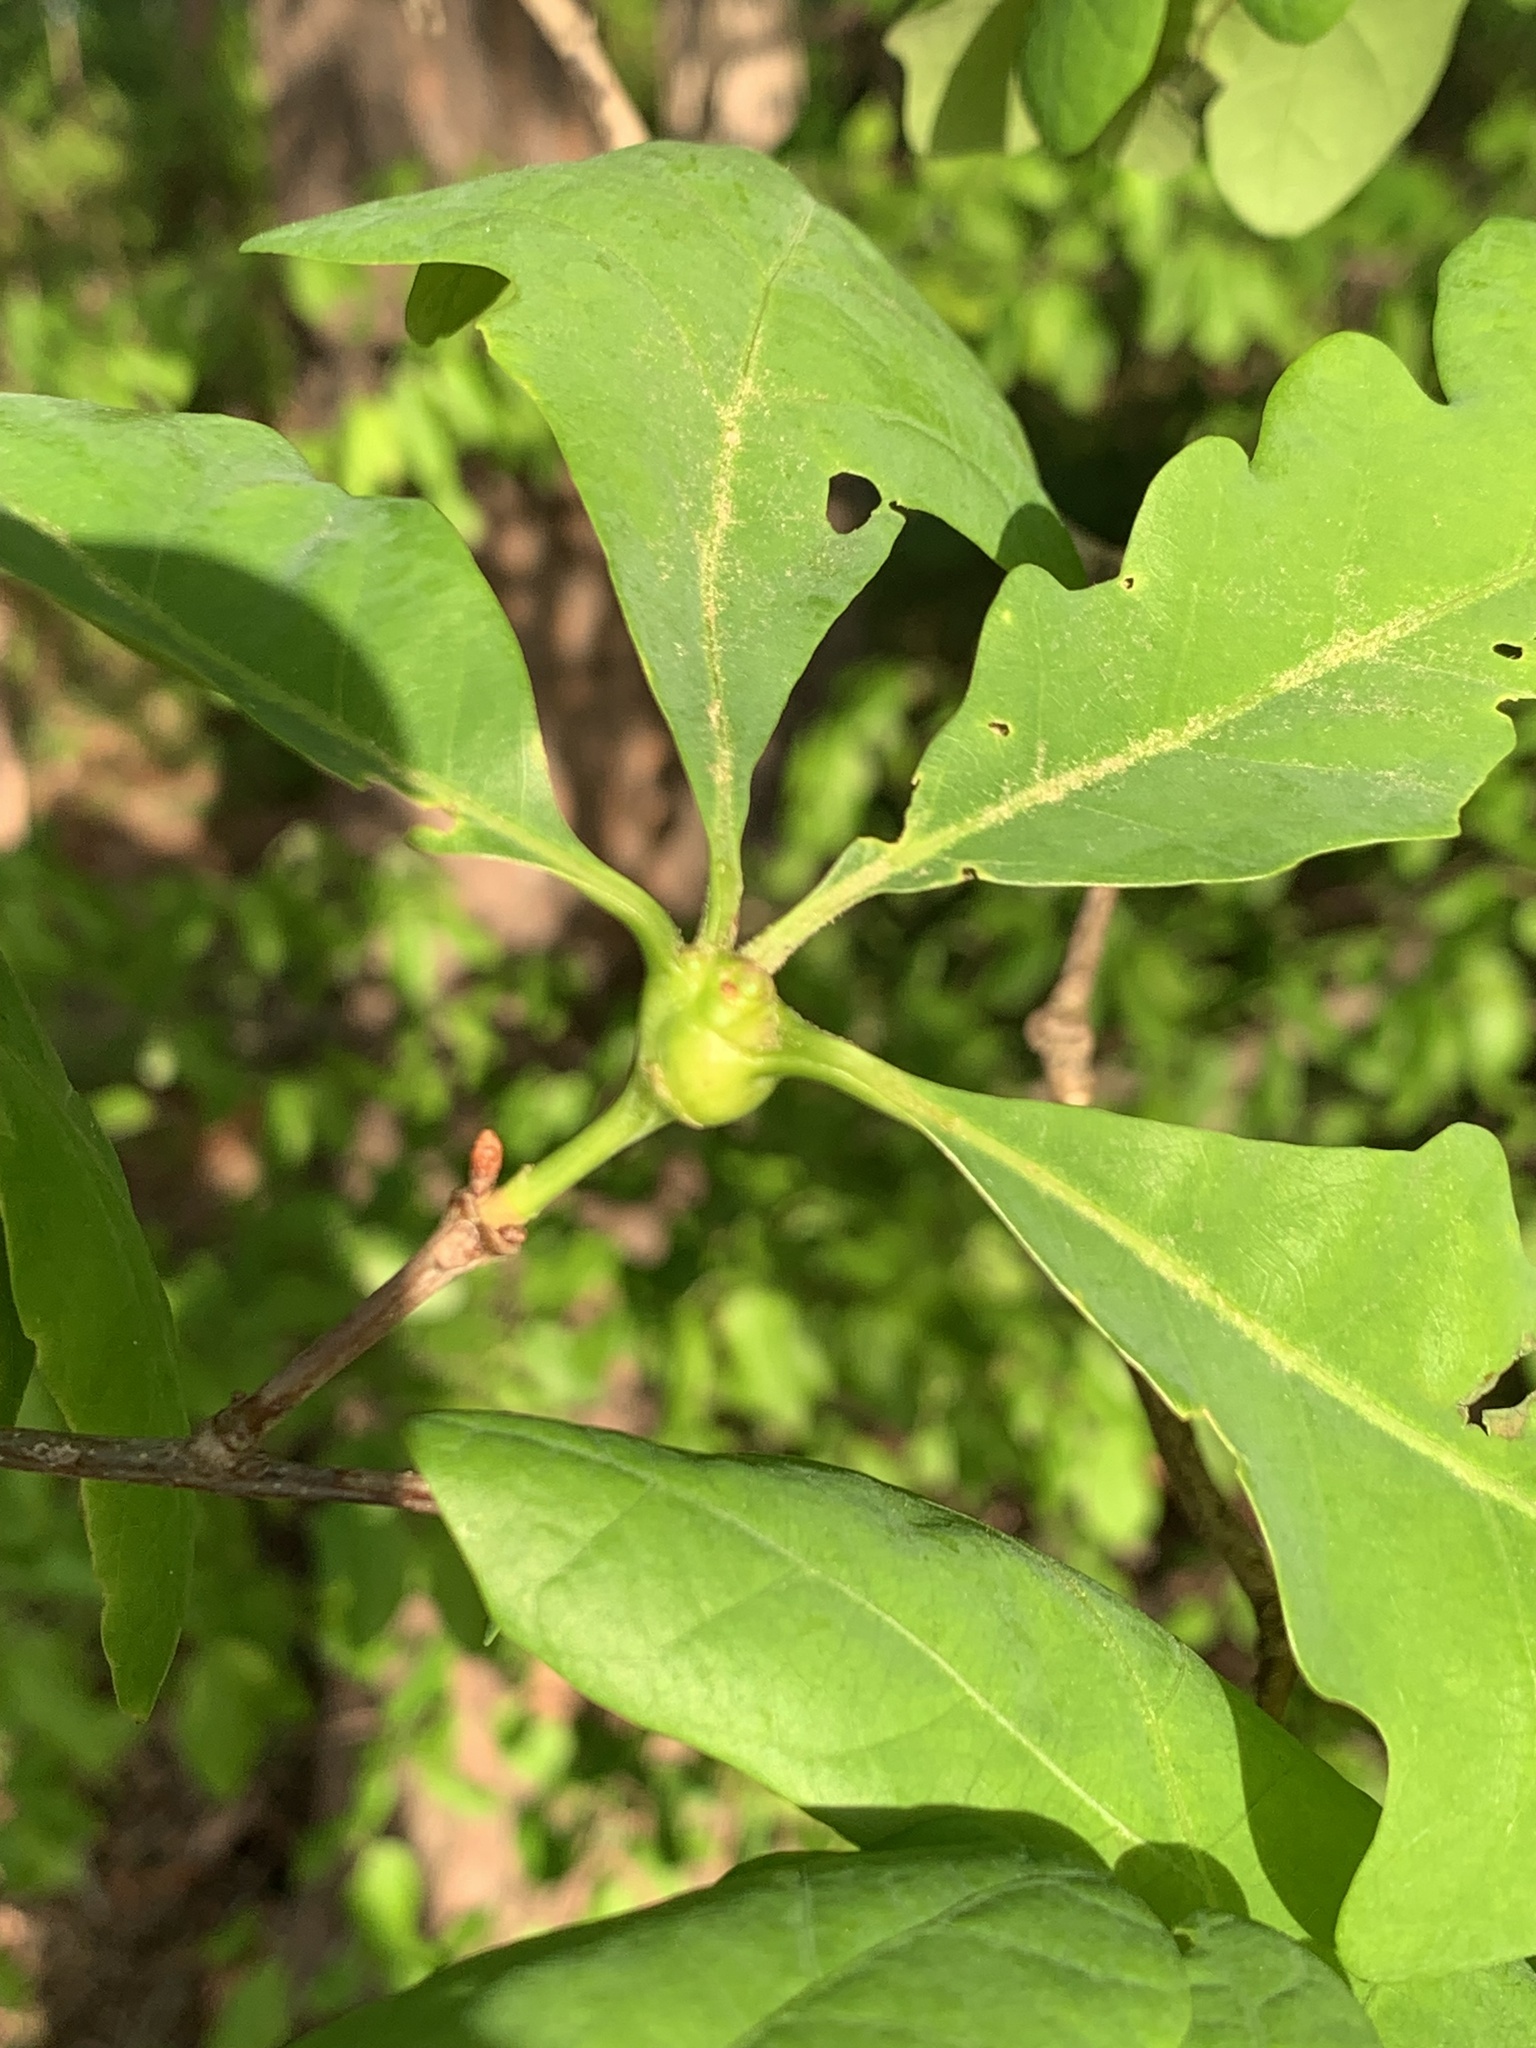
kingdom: Animalia
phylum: Arthropoda
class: Insecta
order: Hymenoptera
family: Cynipidae
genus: Callirhytis
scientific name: Callirhytis clavula
